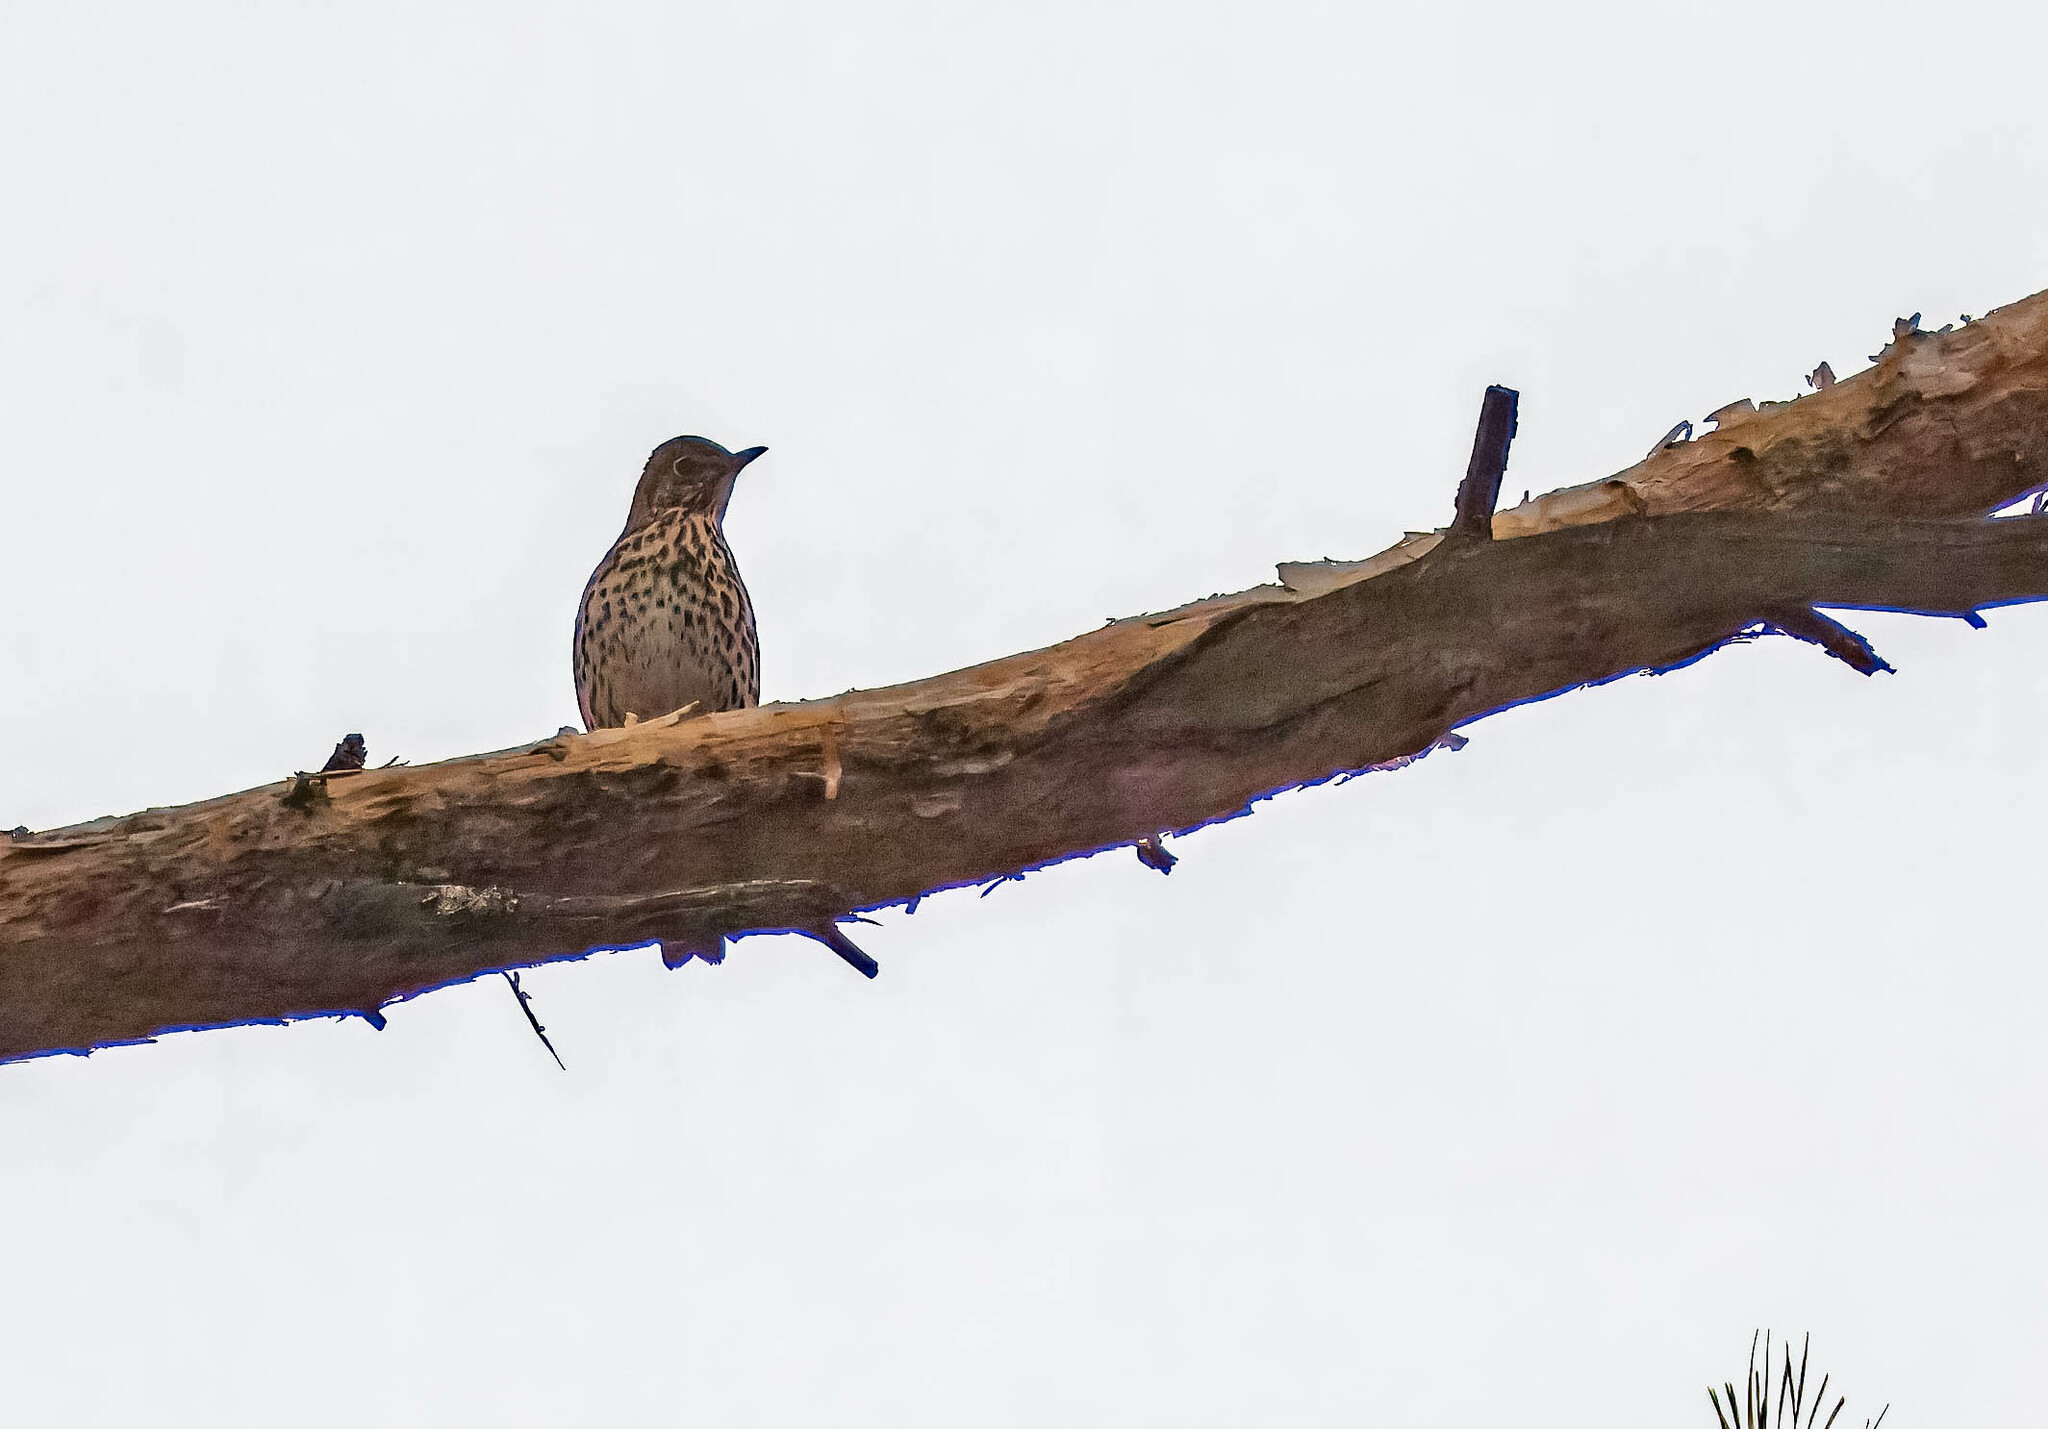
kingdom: Animalia
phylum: Chordata
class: Aves
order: Passeriformes
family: Turdidae
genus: Turdus
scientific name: Turdus philomelos
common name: Song thrush
